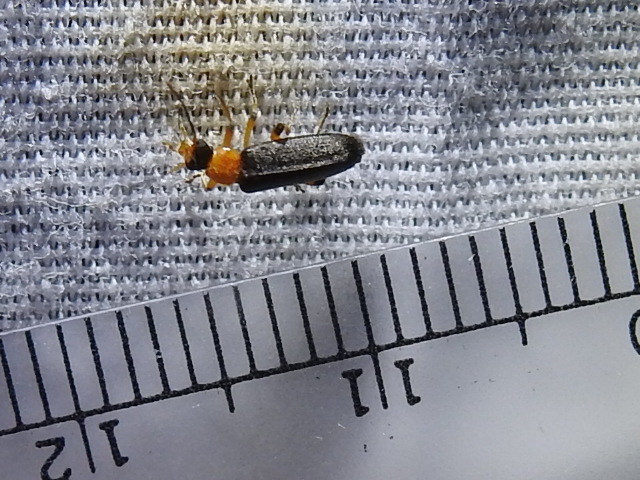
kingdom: Animalia
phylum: Arthropoda
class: Insecta
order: Coleoptera
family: Melandryidae
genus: Osphya
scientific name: Osphya varians
